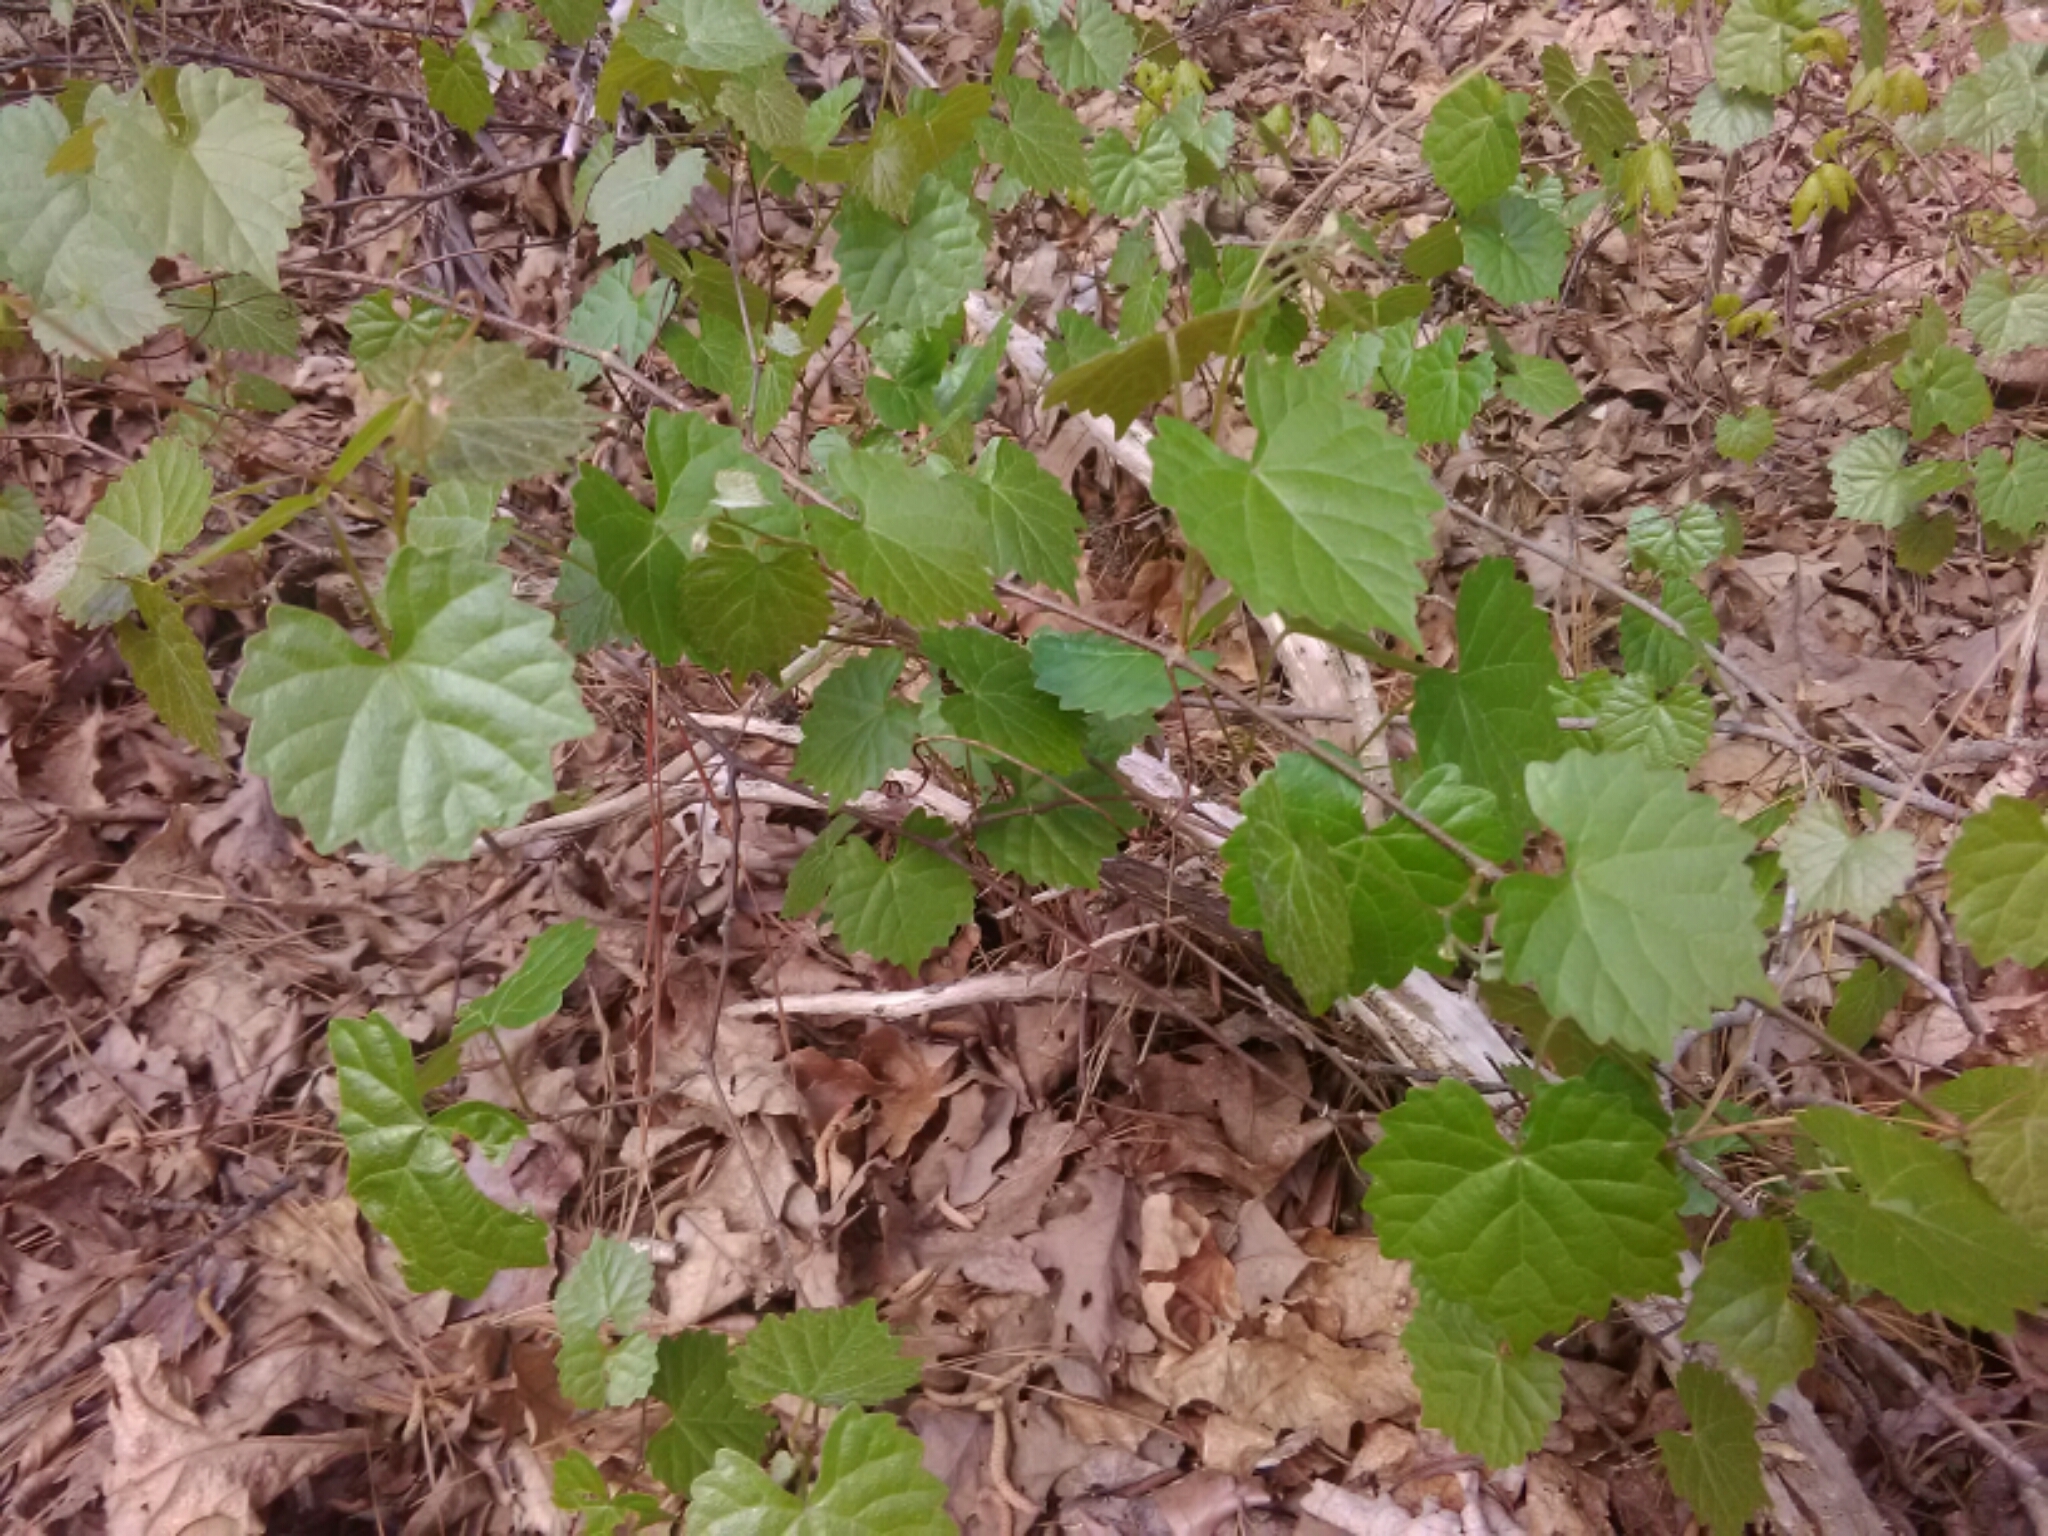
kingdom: Plantae
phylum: Tracheophyta
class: Magnoliopsida
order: Vitales
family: Vitaceae
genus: Vitis
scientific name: Vitis rotundifolia
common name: Muscadine grape
